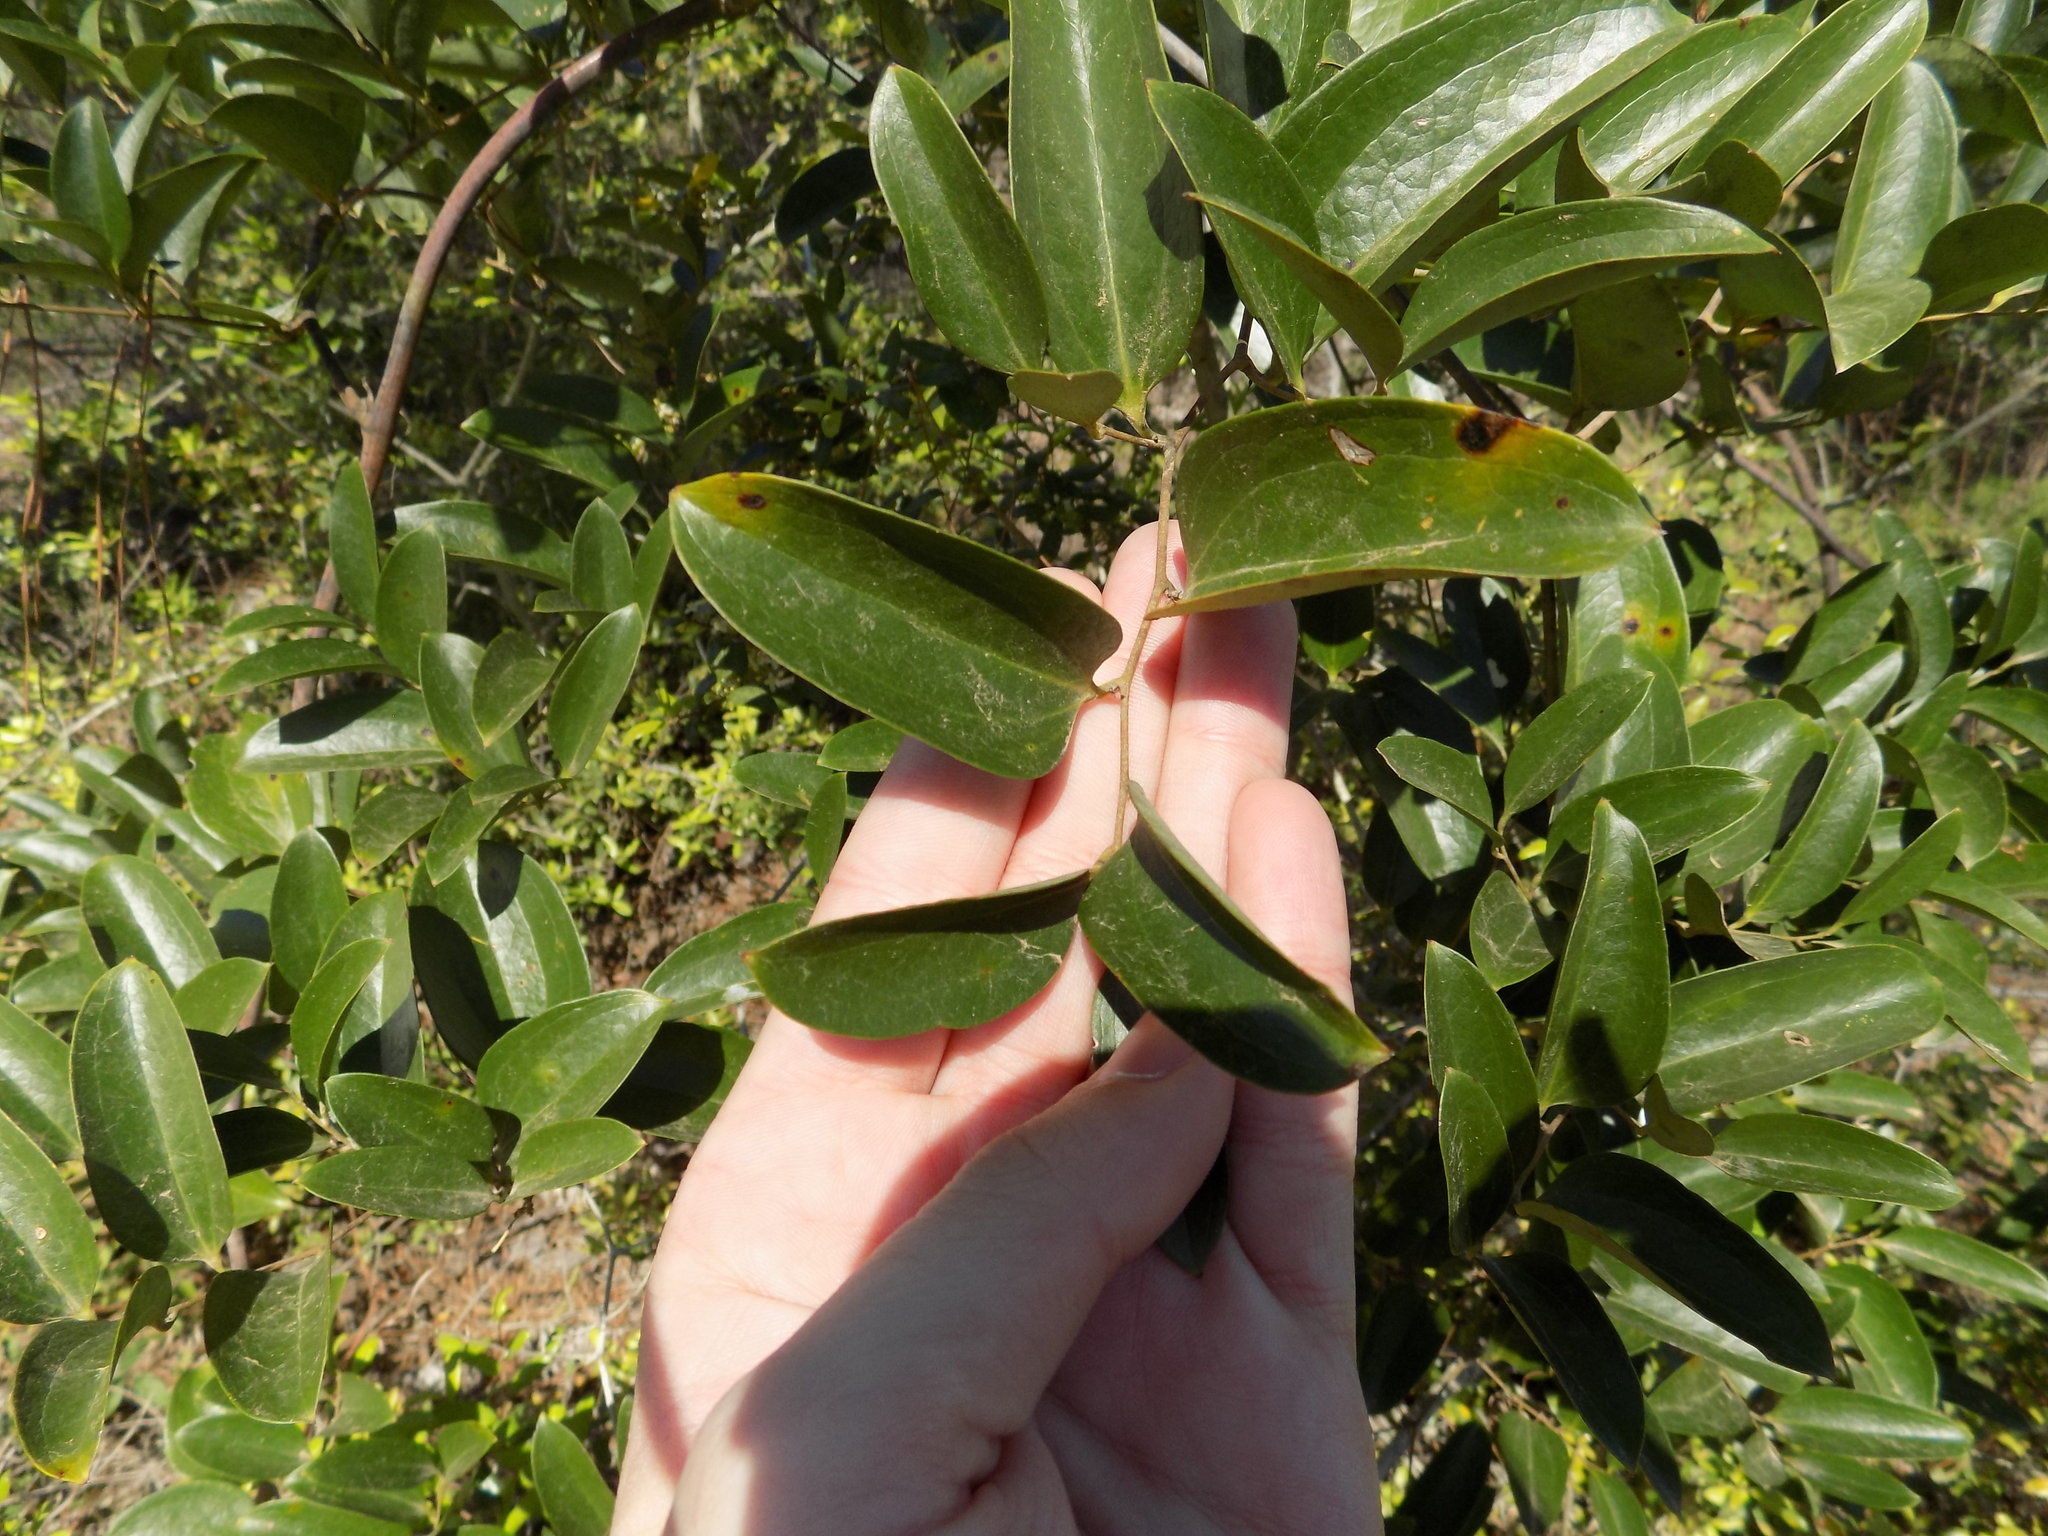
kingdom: Plantae
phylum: Tracheophyta
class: Liliopsida
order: Liliales
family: Smilacaceae
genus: Smilax
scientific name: Smilax laurifolia
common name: Bamboovine
